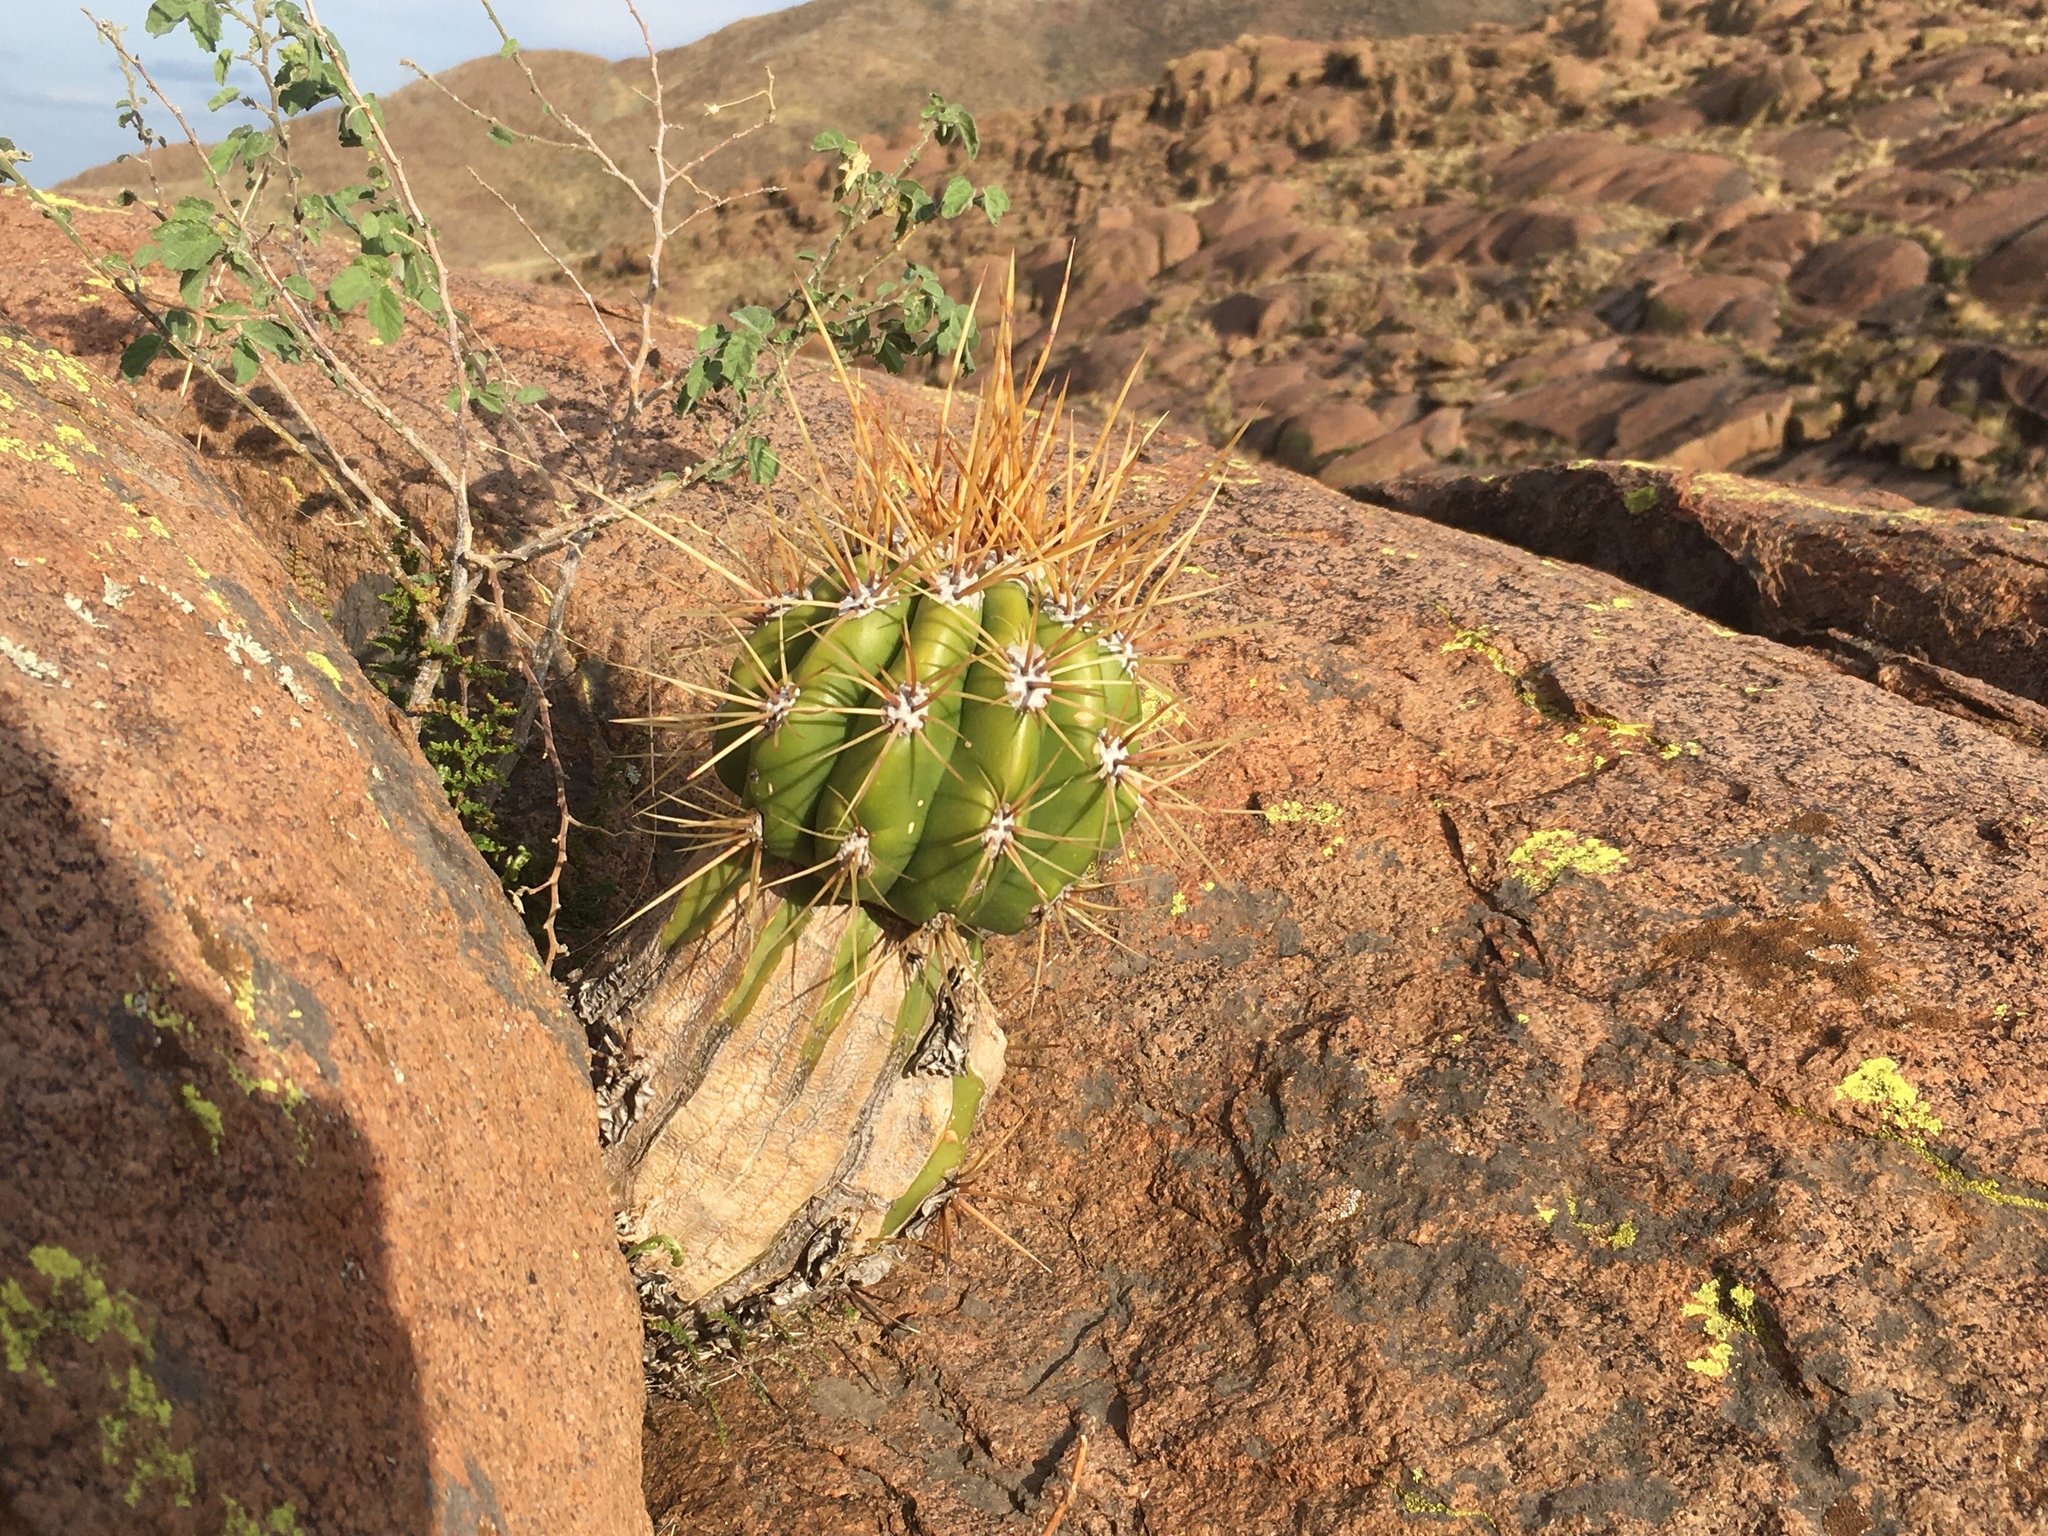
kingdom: Plantae
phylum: Tracheophyta
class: Magnoliopsida
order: Caryophyllales
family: Cactaceae
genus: Soehrensia
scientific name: Soehrensia candicans
